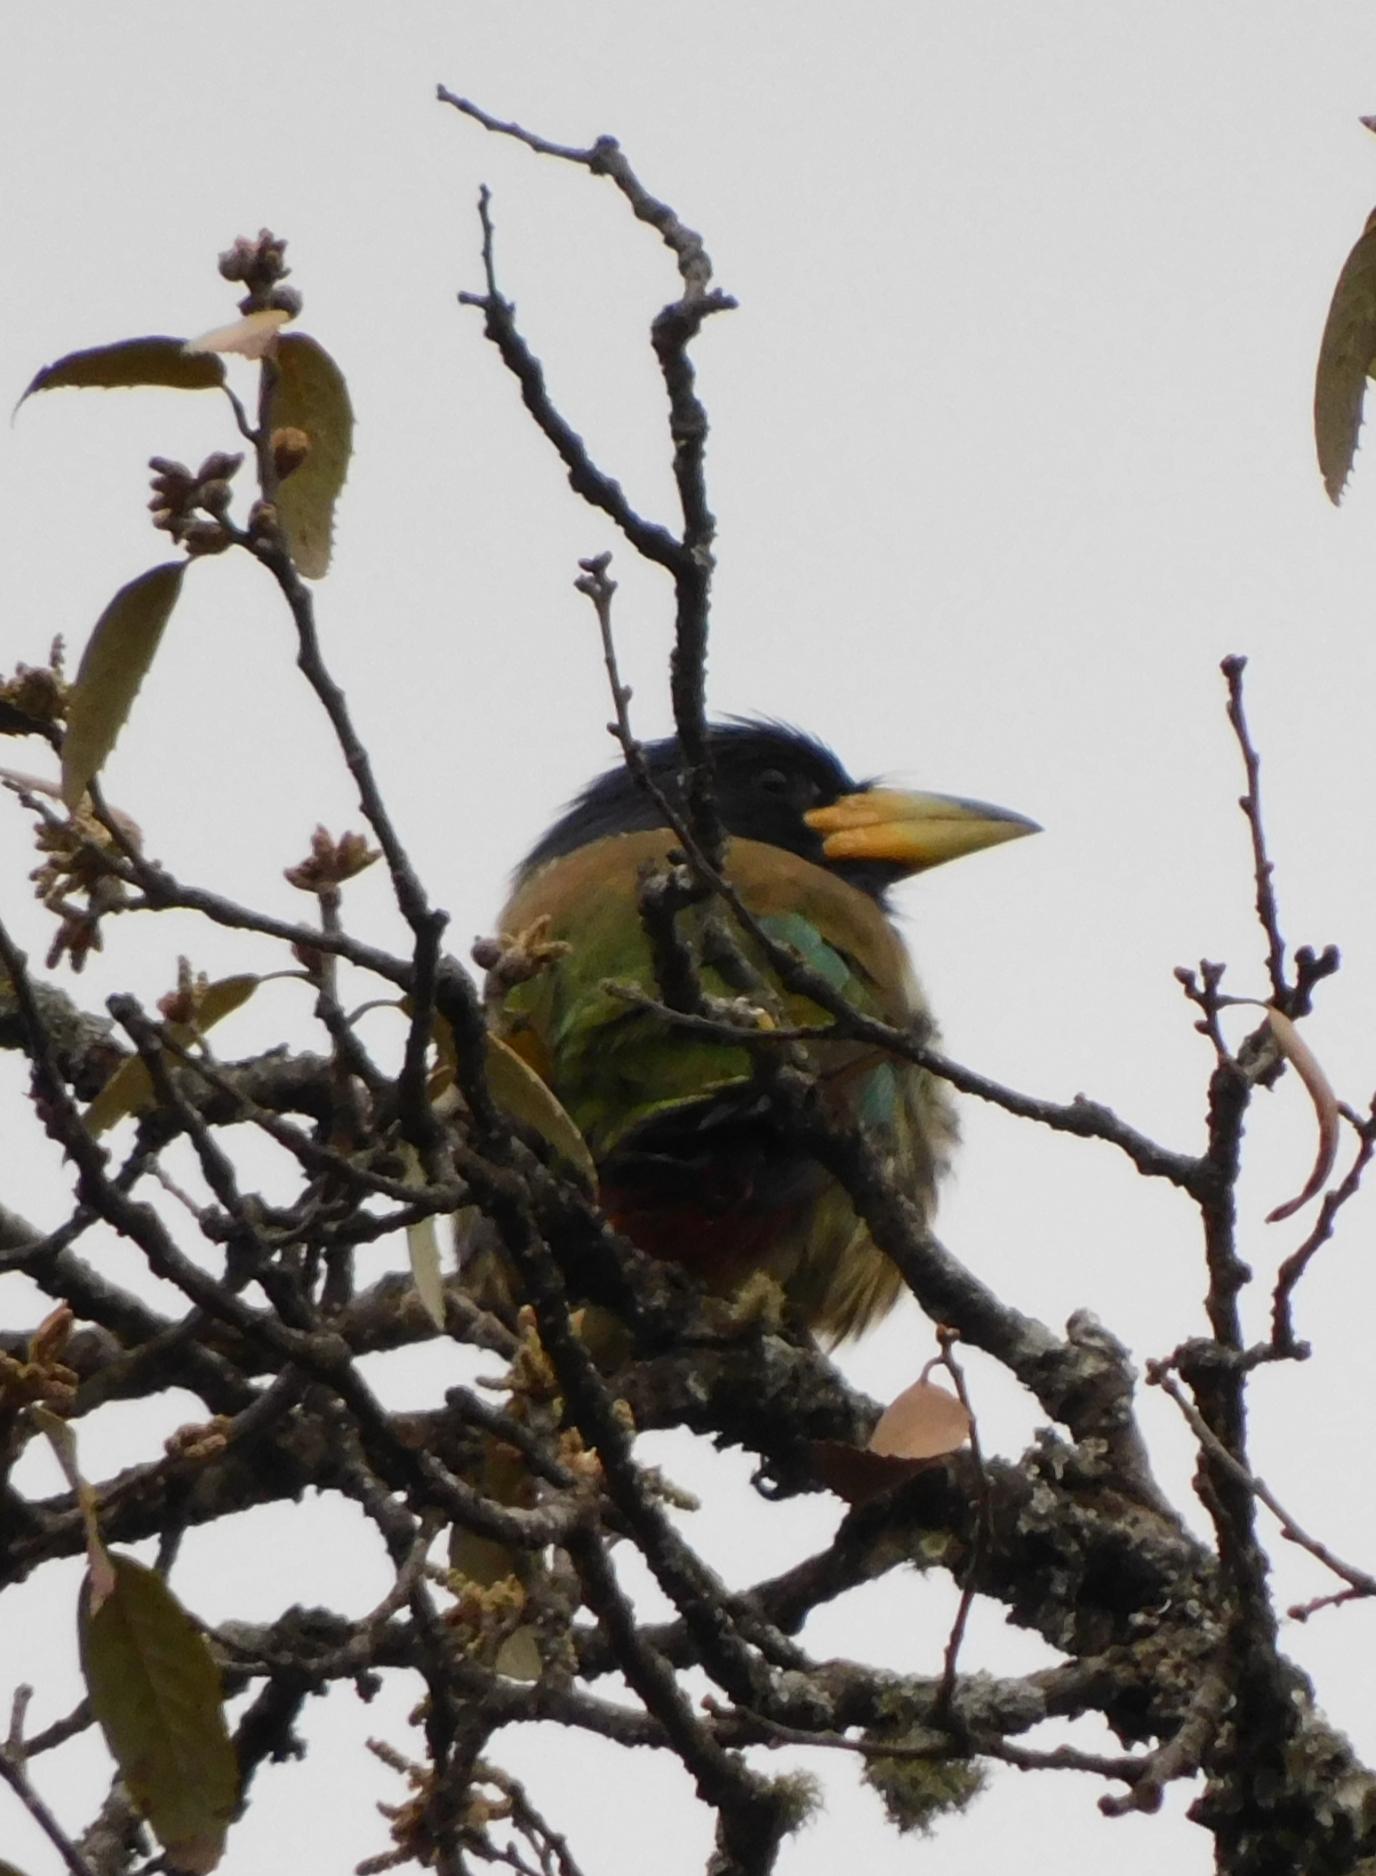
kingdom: Animalia
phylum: Chordata
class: Aves
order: Piciformes
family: Megalaimidae
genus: Psilopogon
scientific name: Psilopogon virens
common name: Great barbet
